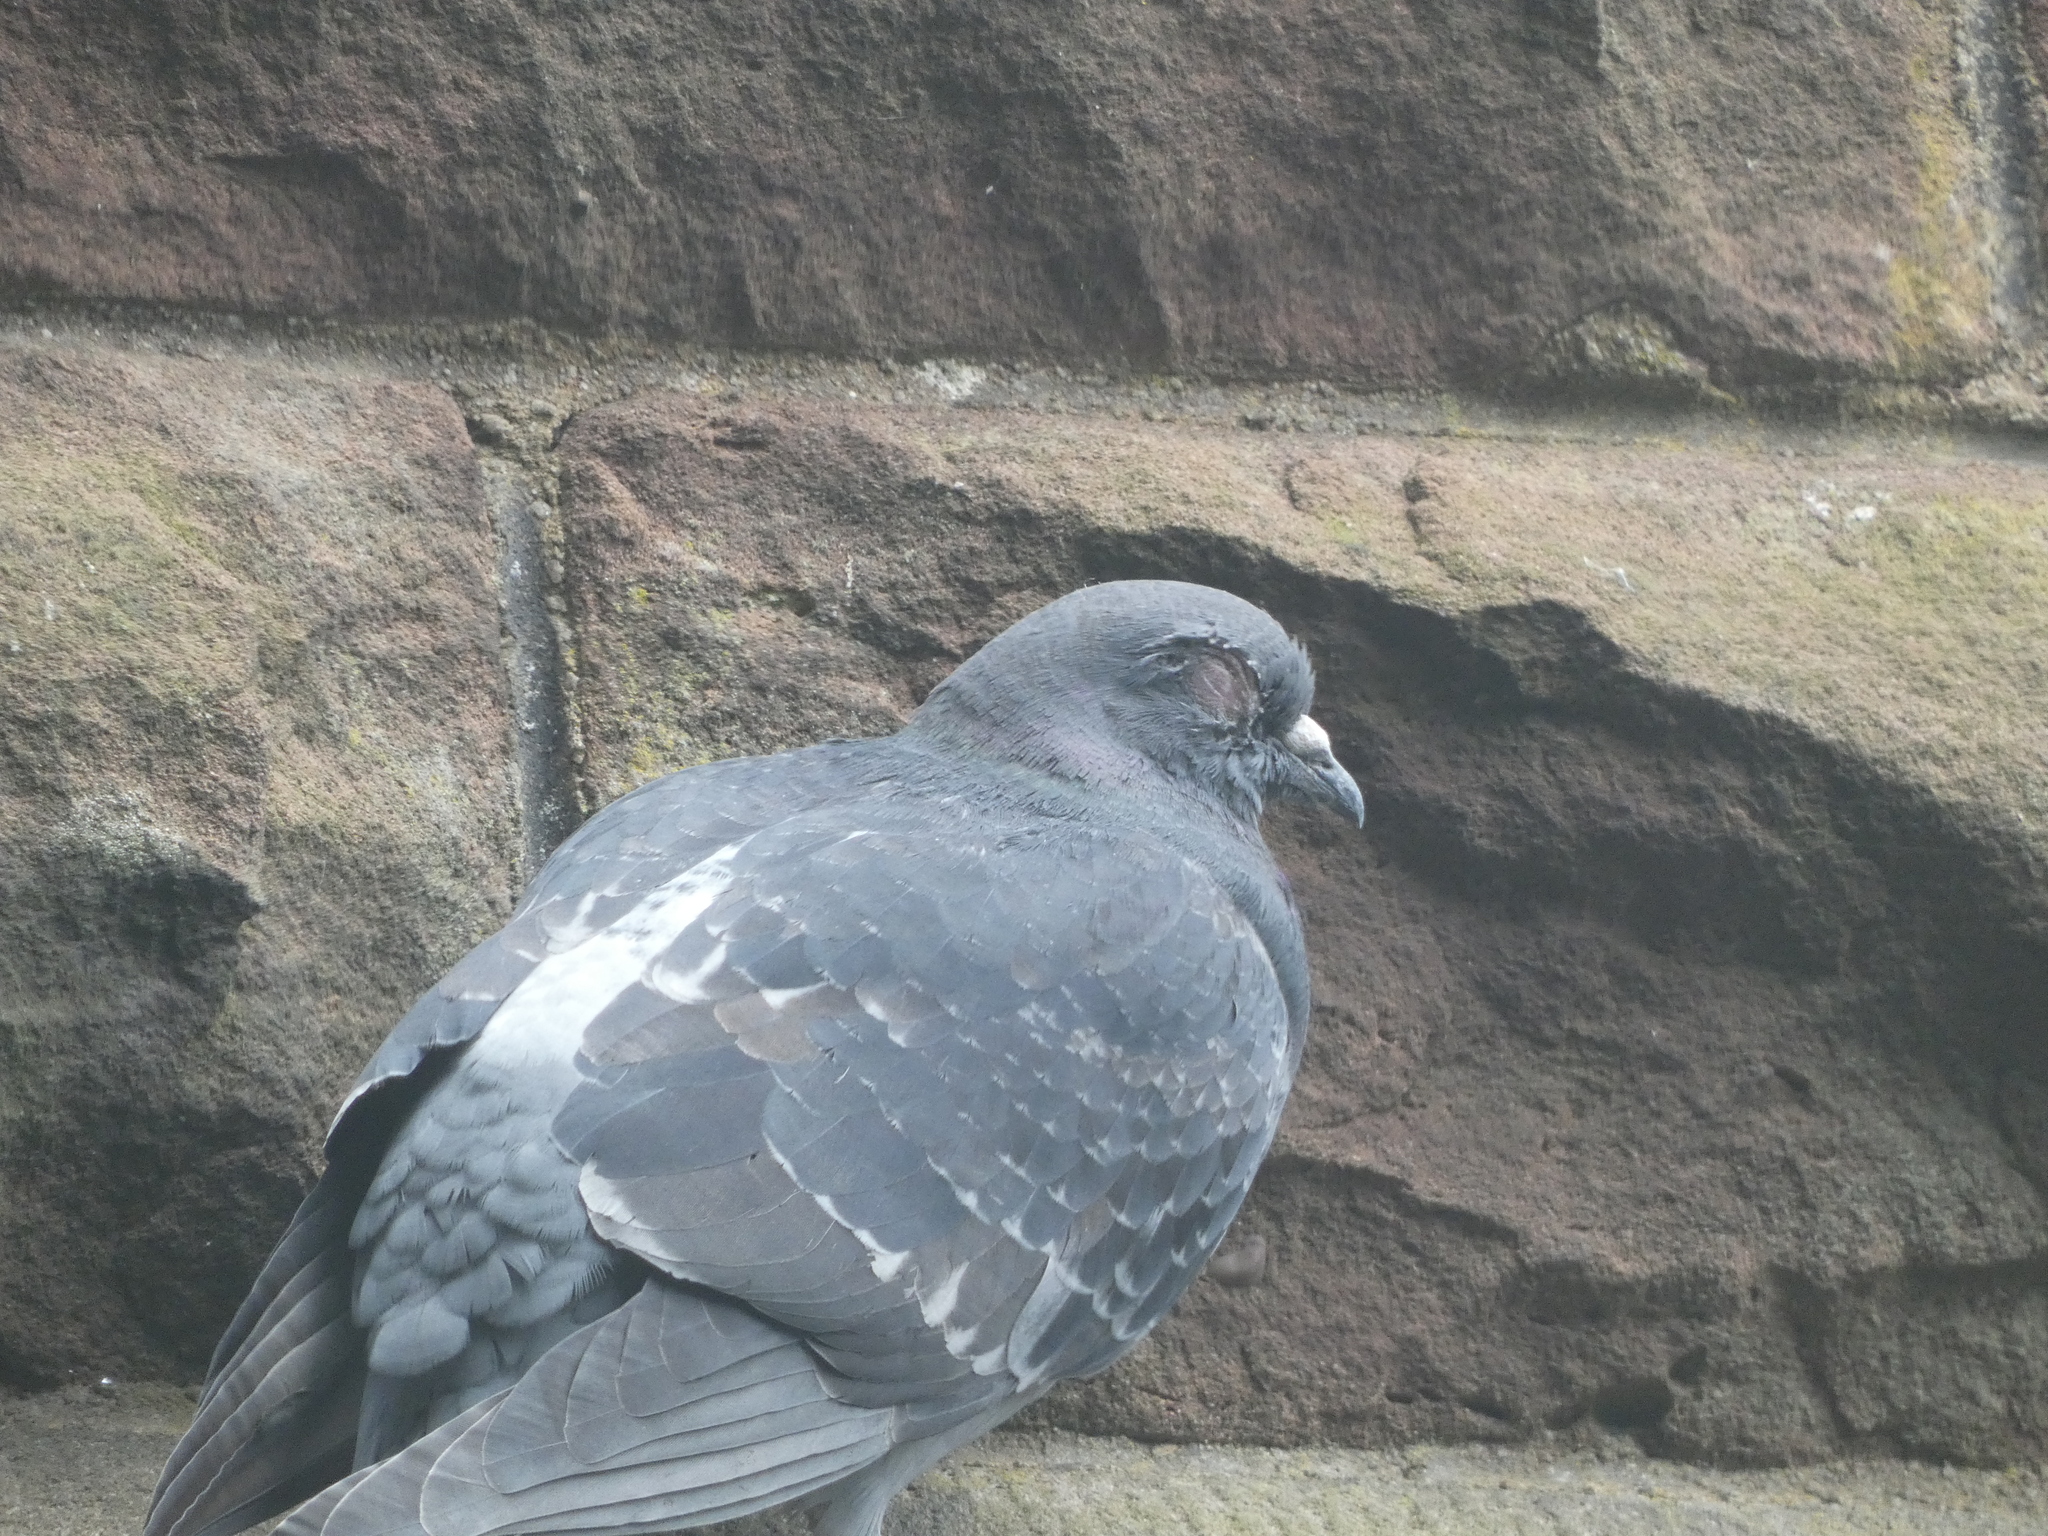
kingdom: Animalia
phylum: Chordata
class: Aves
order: Columbiformes
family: Columbidae
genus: Columba
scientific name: Columba livia
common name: Rock pigeon
